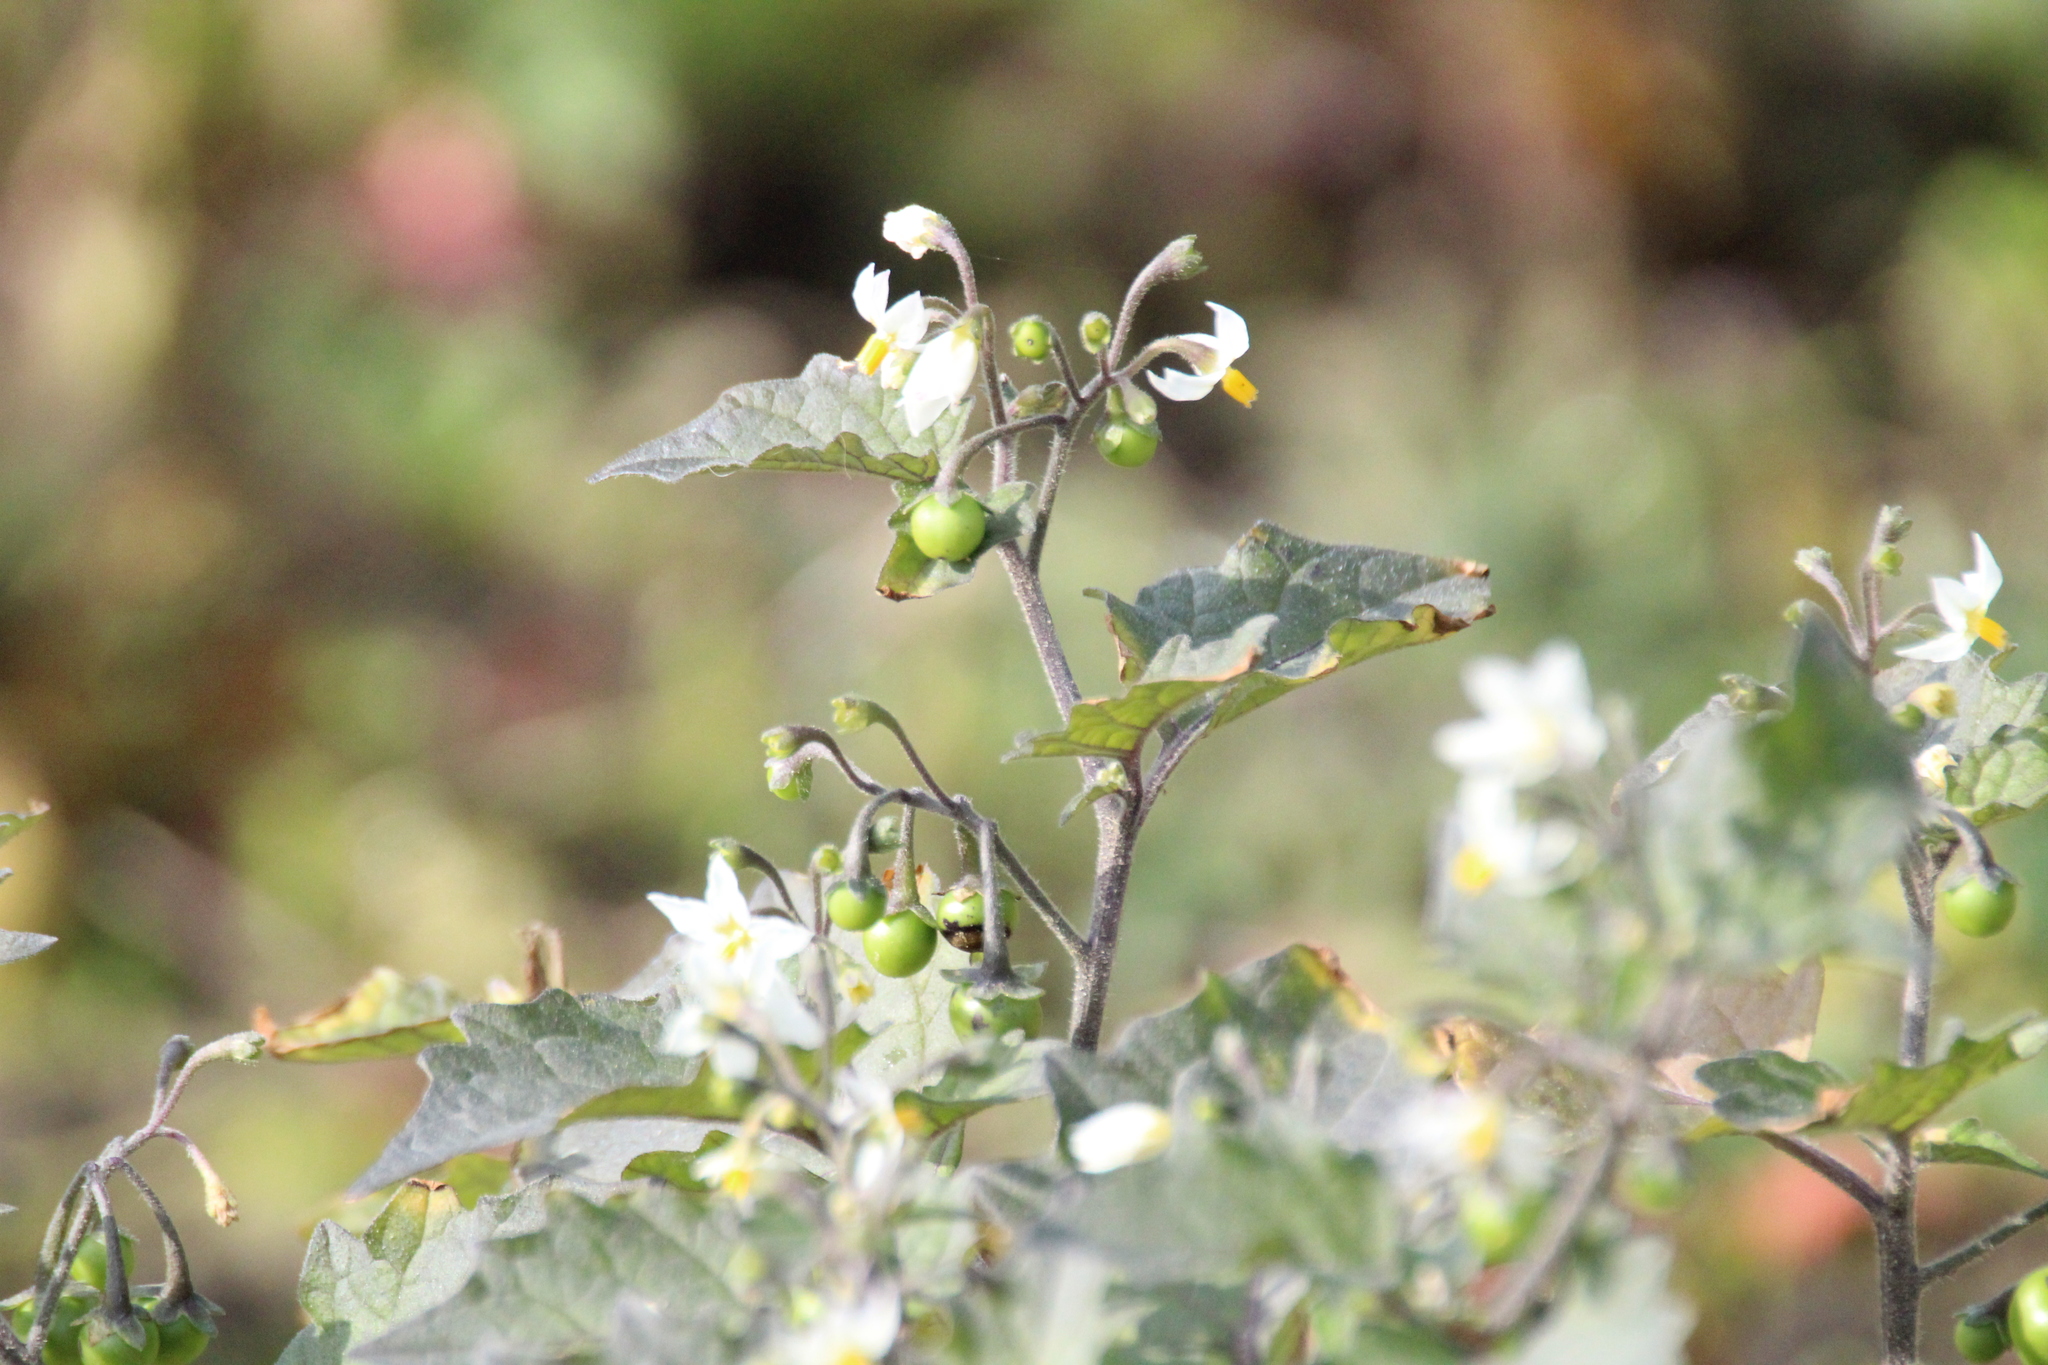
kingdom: Plantae
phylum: Tracheophyta
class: Magnoliopsida
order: Solanales
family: Solanaceae
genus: Solanum
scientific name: Solanum nigrum
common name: Black nightshade
